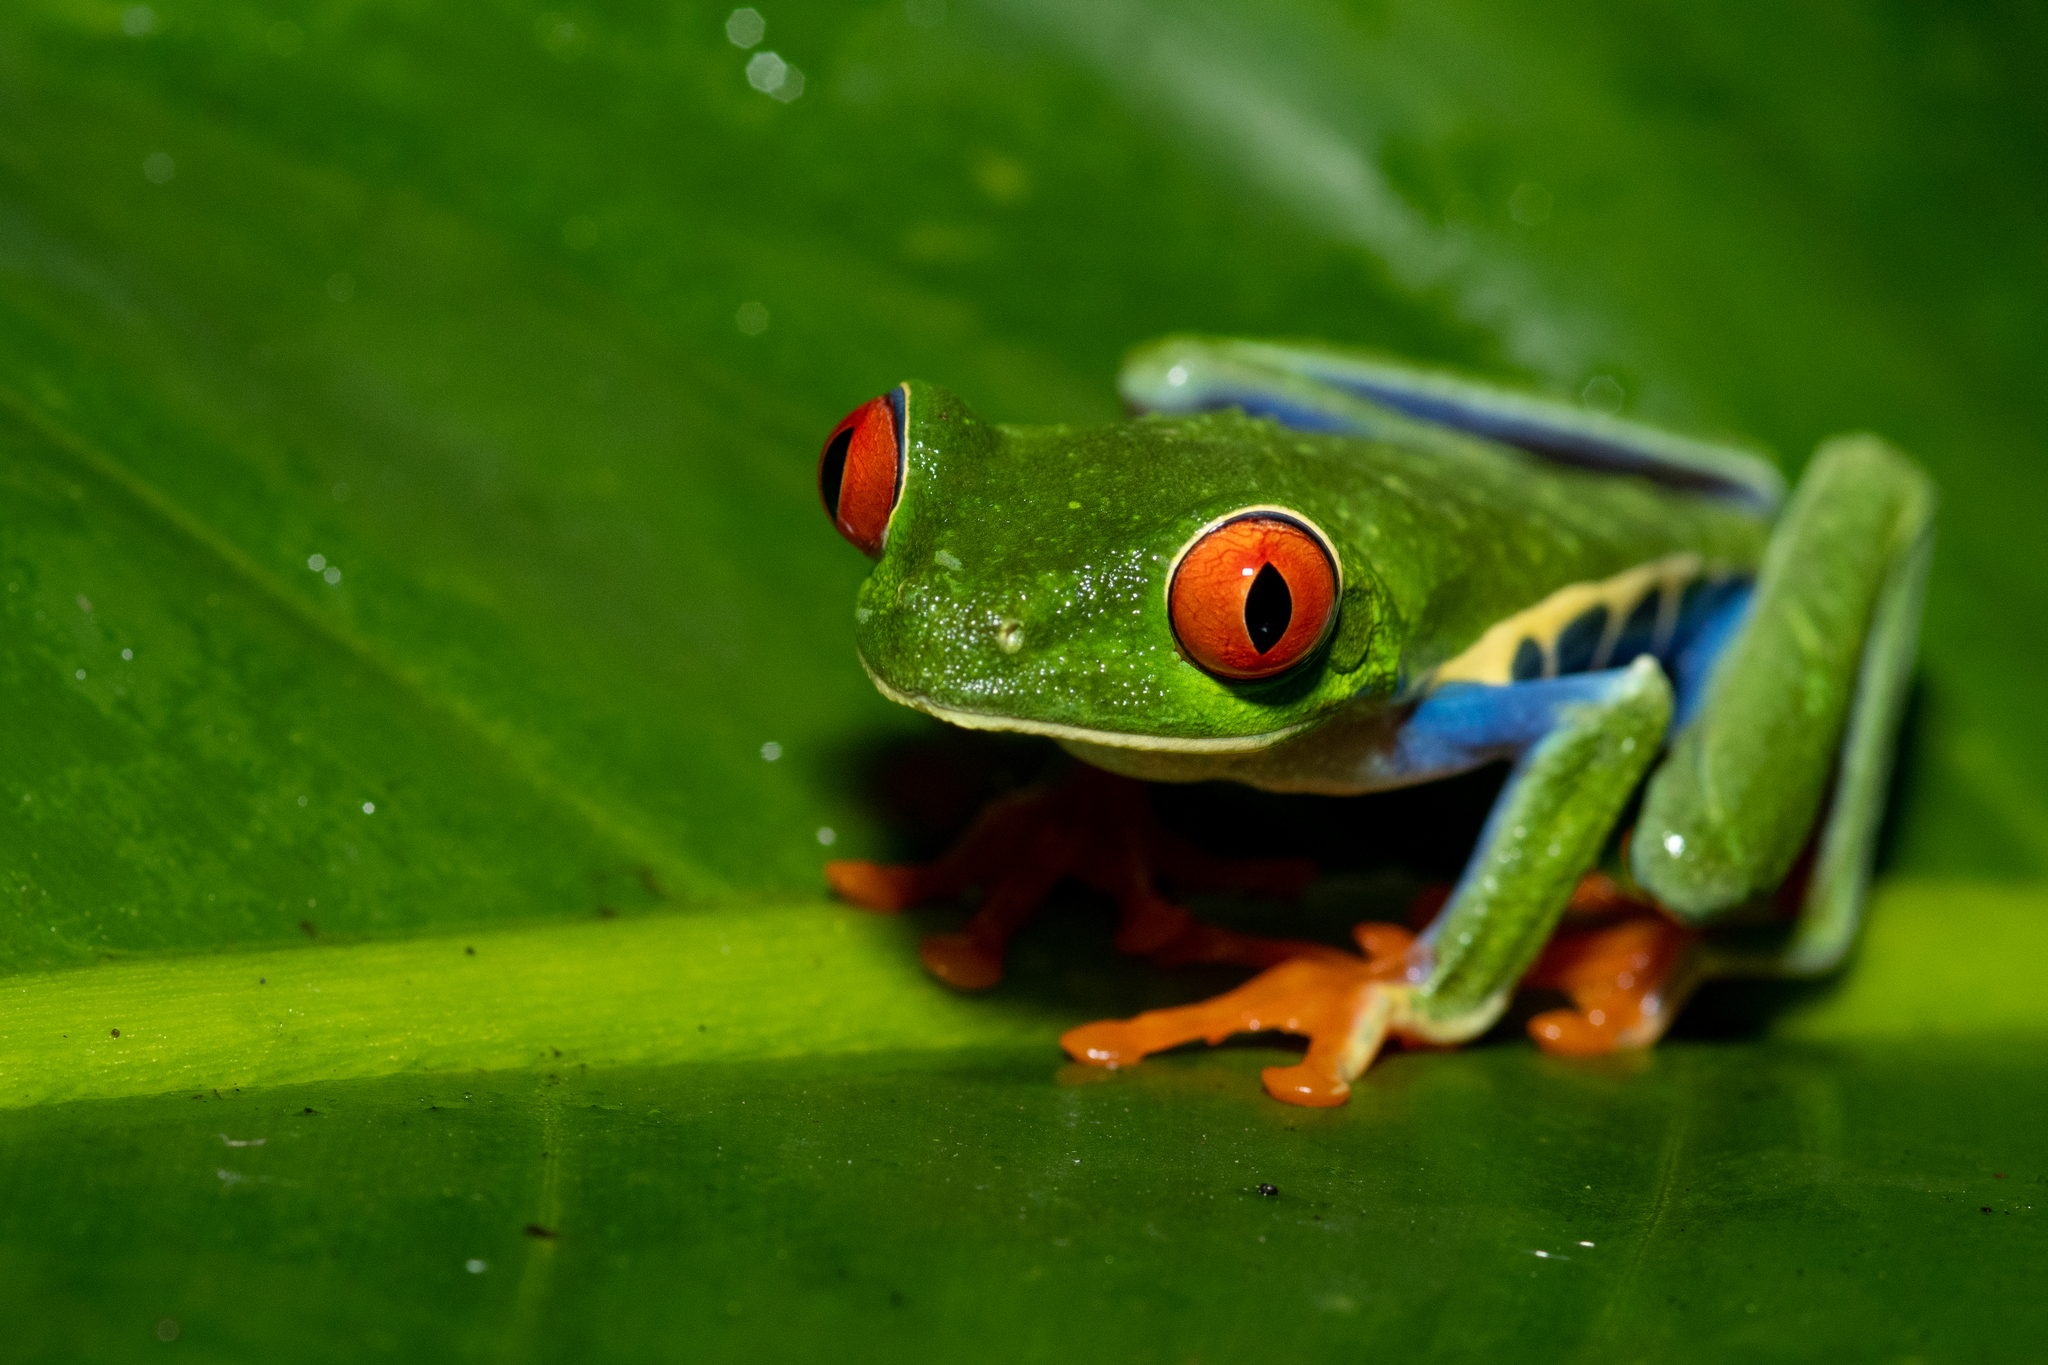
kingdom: Animalia
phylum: Chordata
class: Amphibia
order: Anura
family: Phyllomedusidae
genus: Agalychnis
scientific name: Agalychnis callidryas
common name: Red-eyed treefrog
